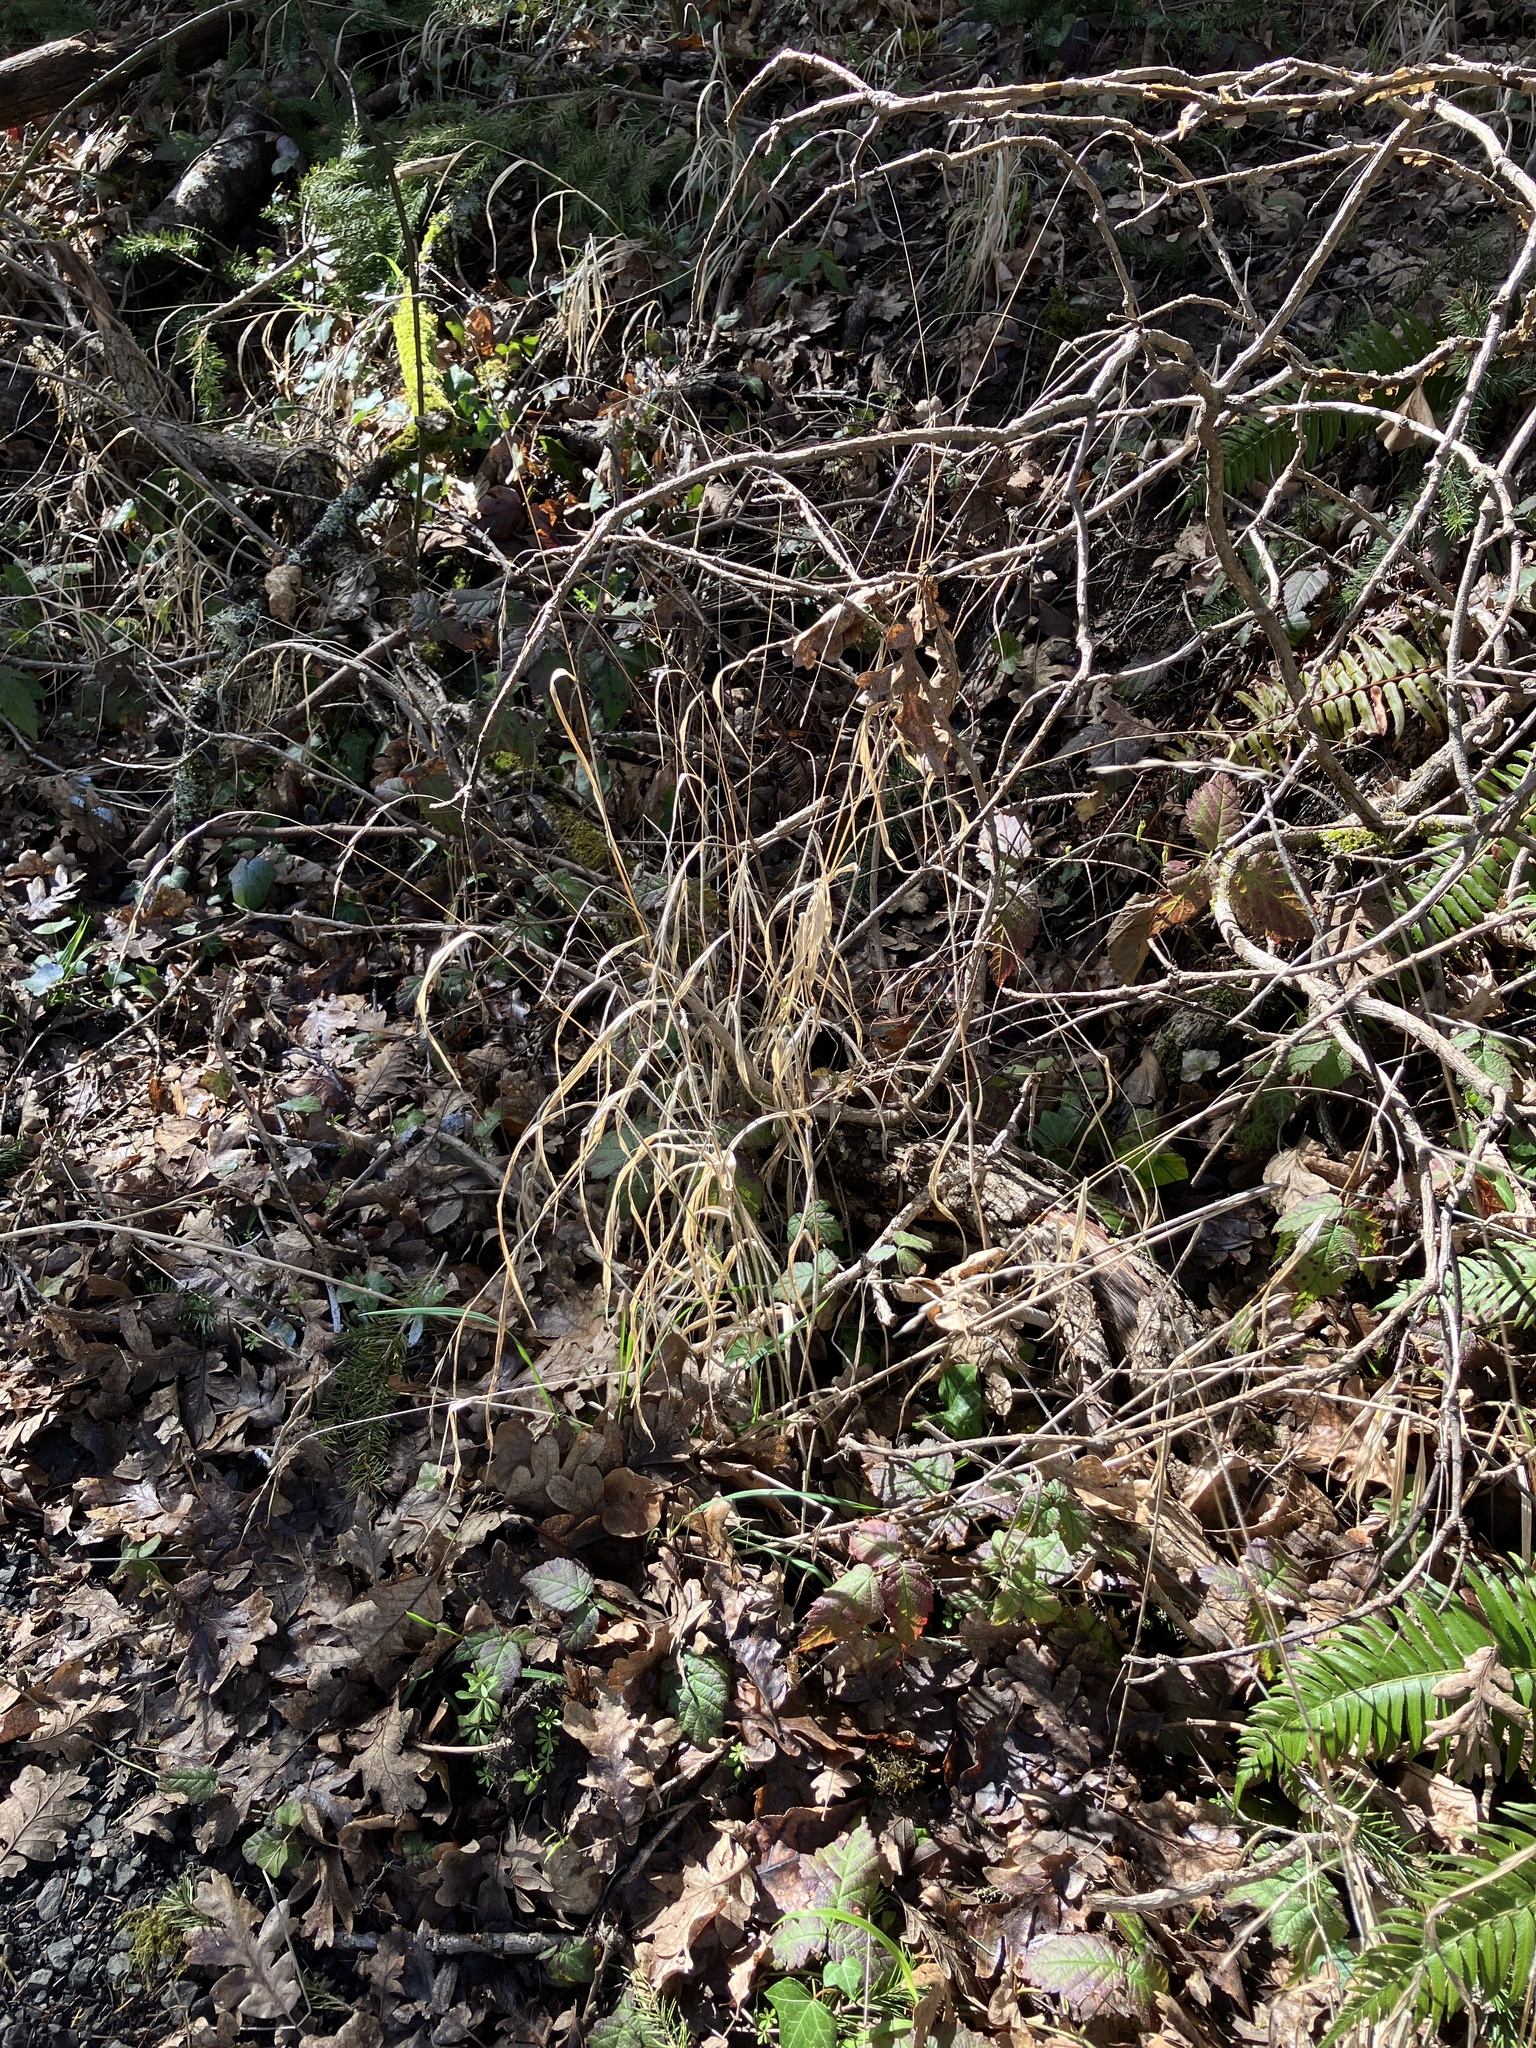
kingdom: Plantae
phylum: Tracheophyta
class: Liliopsida
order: Poales
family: Poaceae
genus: Brachypodium
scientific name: Brachypodium sylvaticum
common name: False-brome
